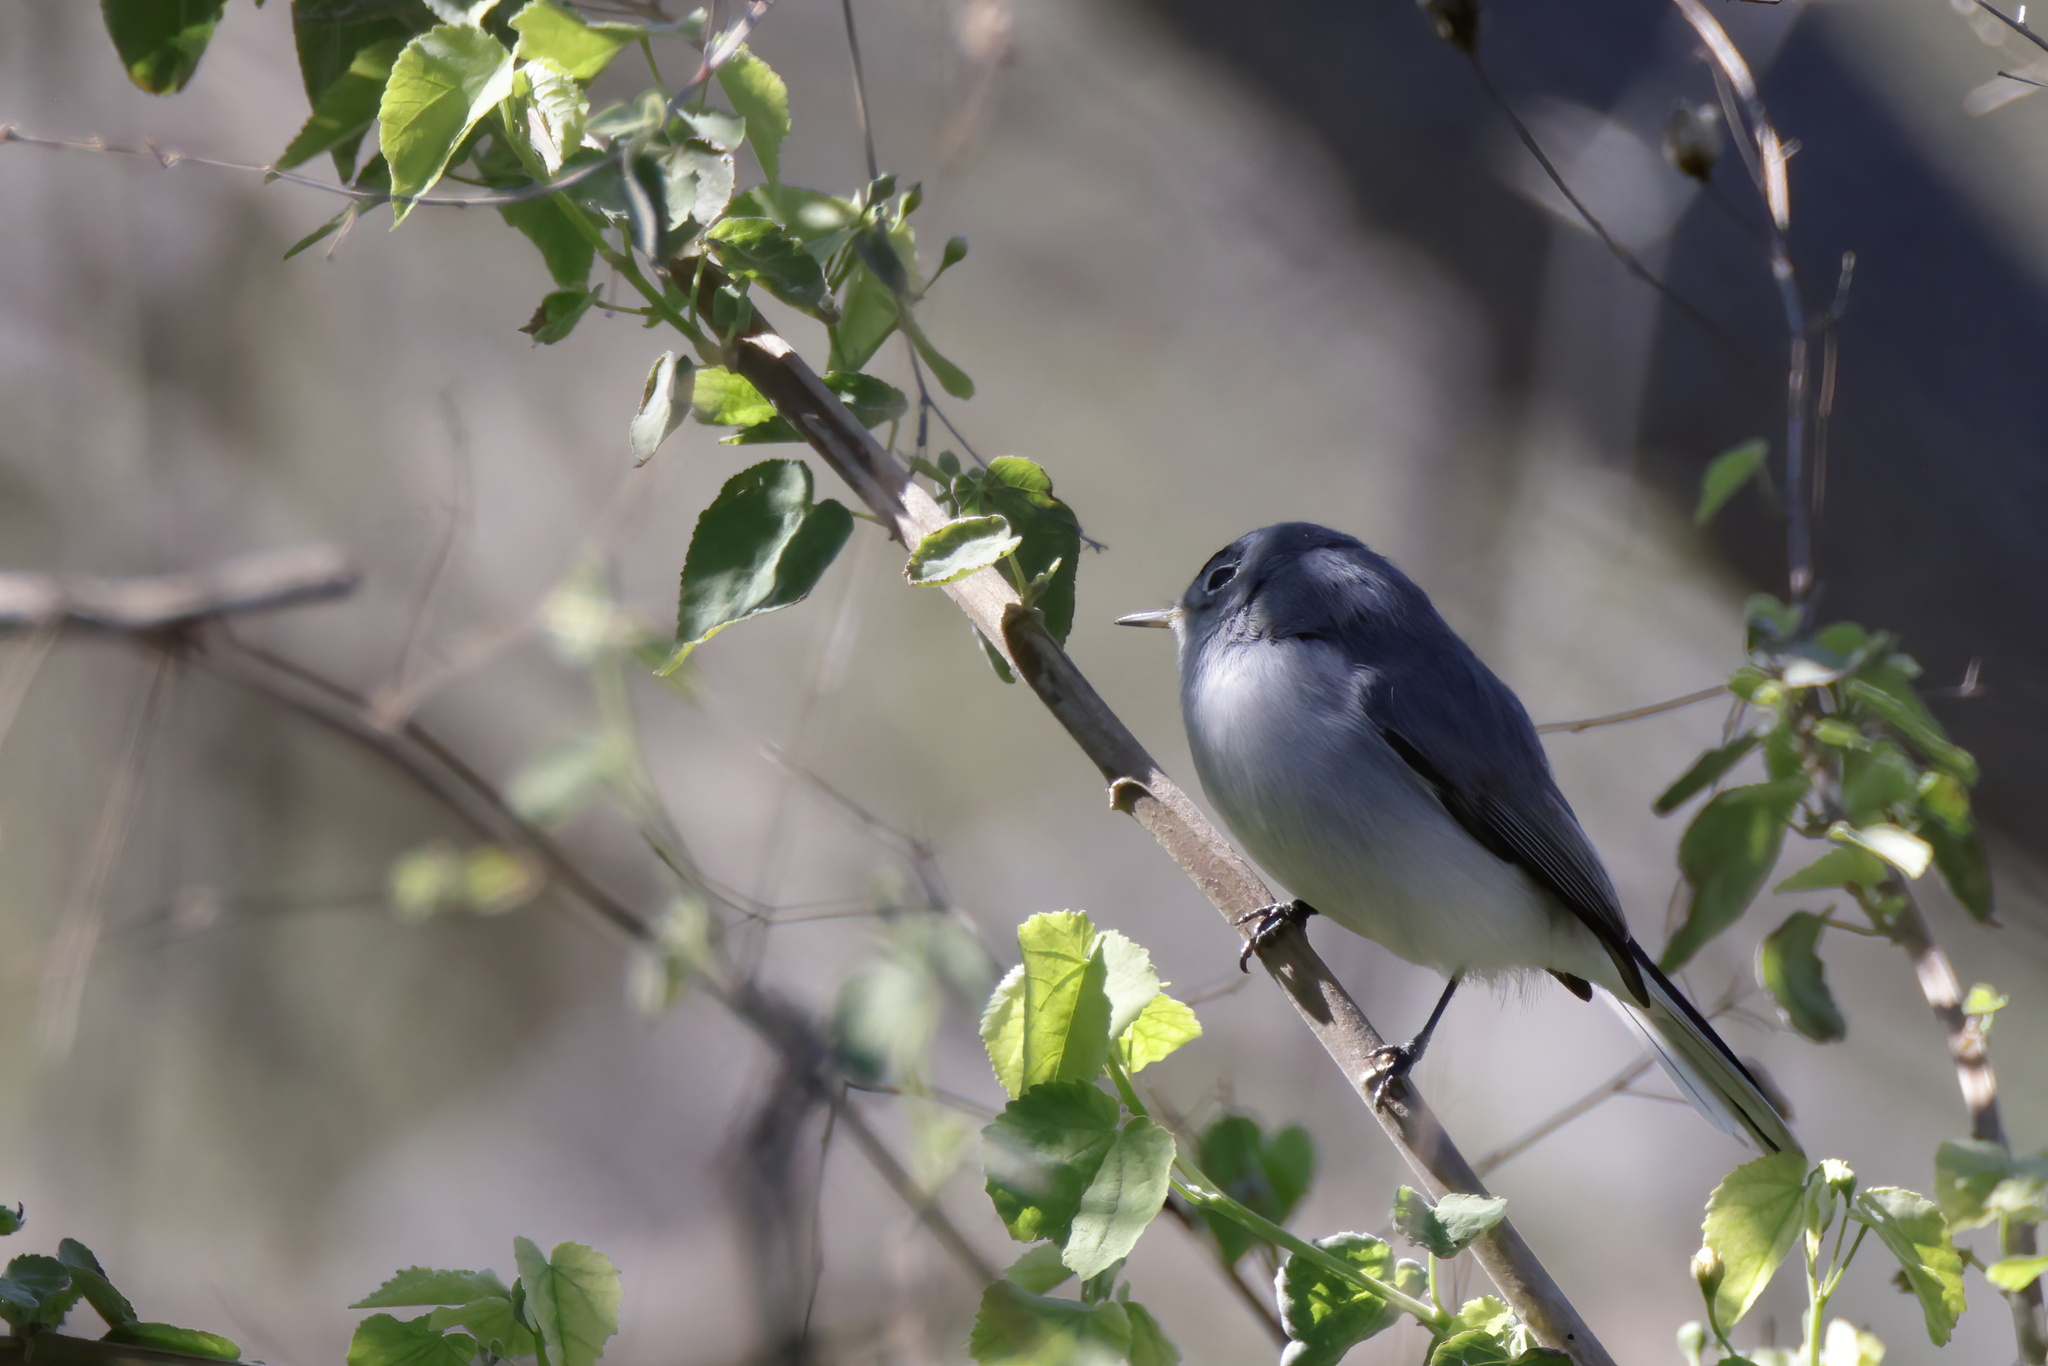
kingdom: Animalia
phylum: Chordata
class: Aves
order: Passeriformes
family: Polioptilidae
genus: Polioptila
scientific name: Polioptila caerulea
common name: Blue-gray gnatcatcher
